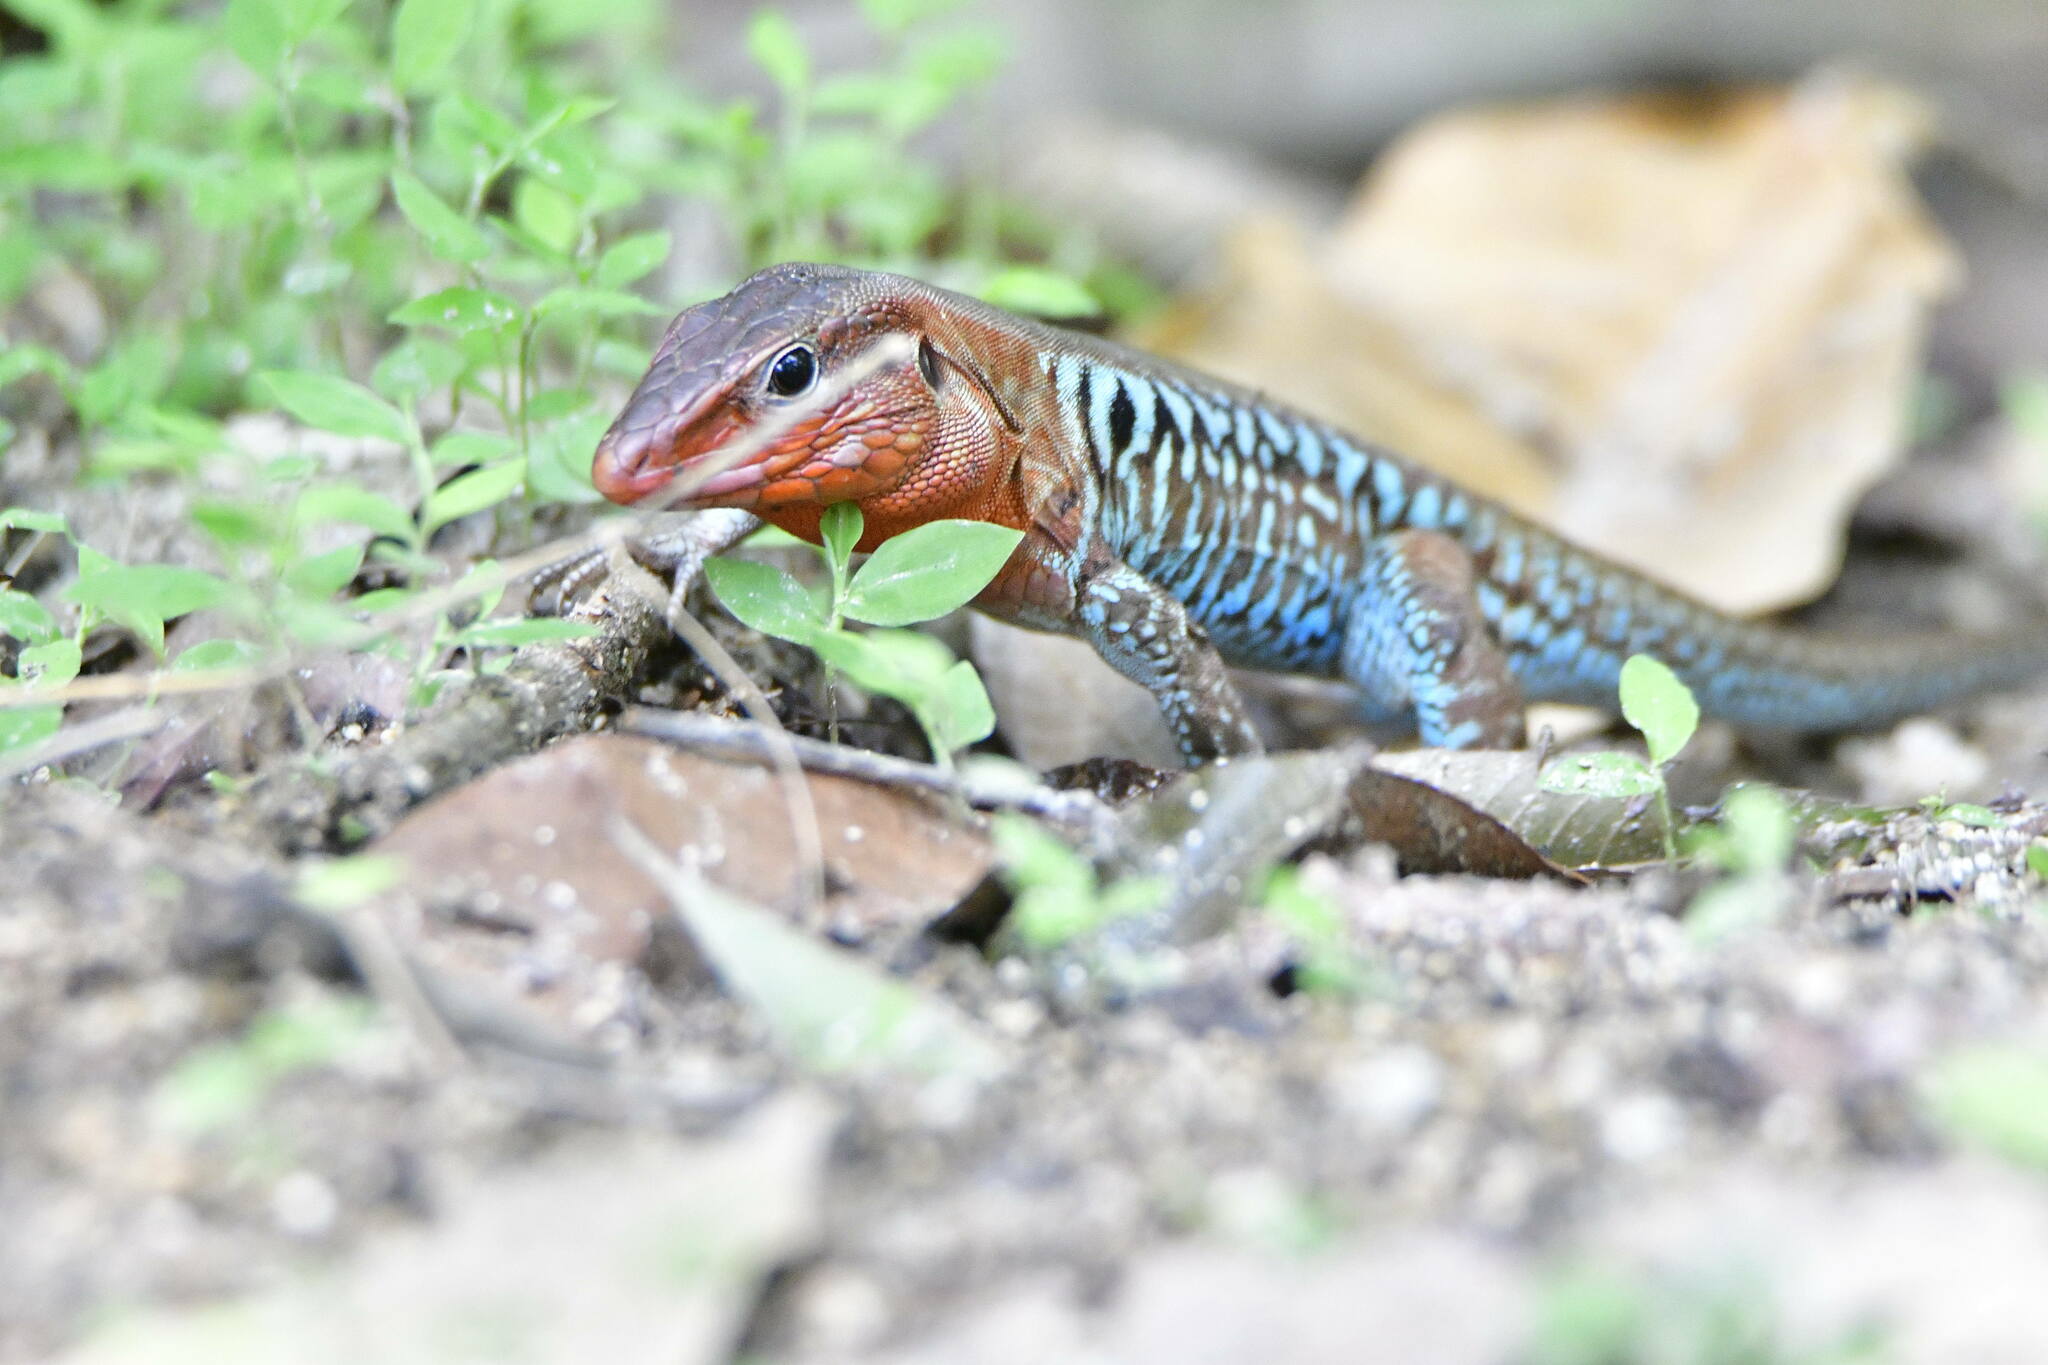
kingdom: Animalia
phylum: Chordata
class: Squamata
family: Teiidae
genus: Holcosus
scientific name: Holcosus undulatus
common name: Rainbow ameiva
